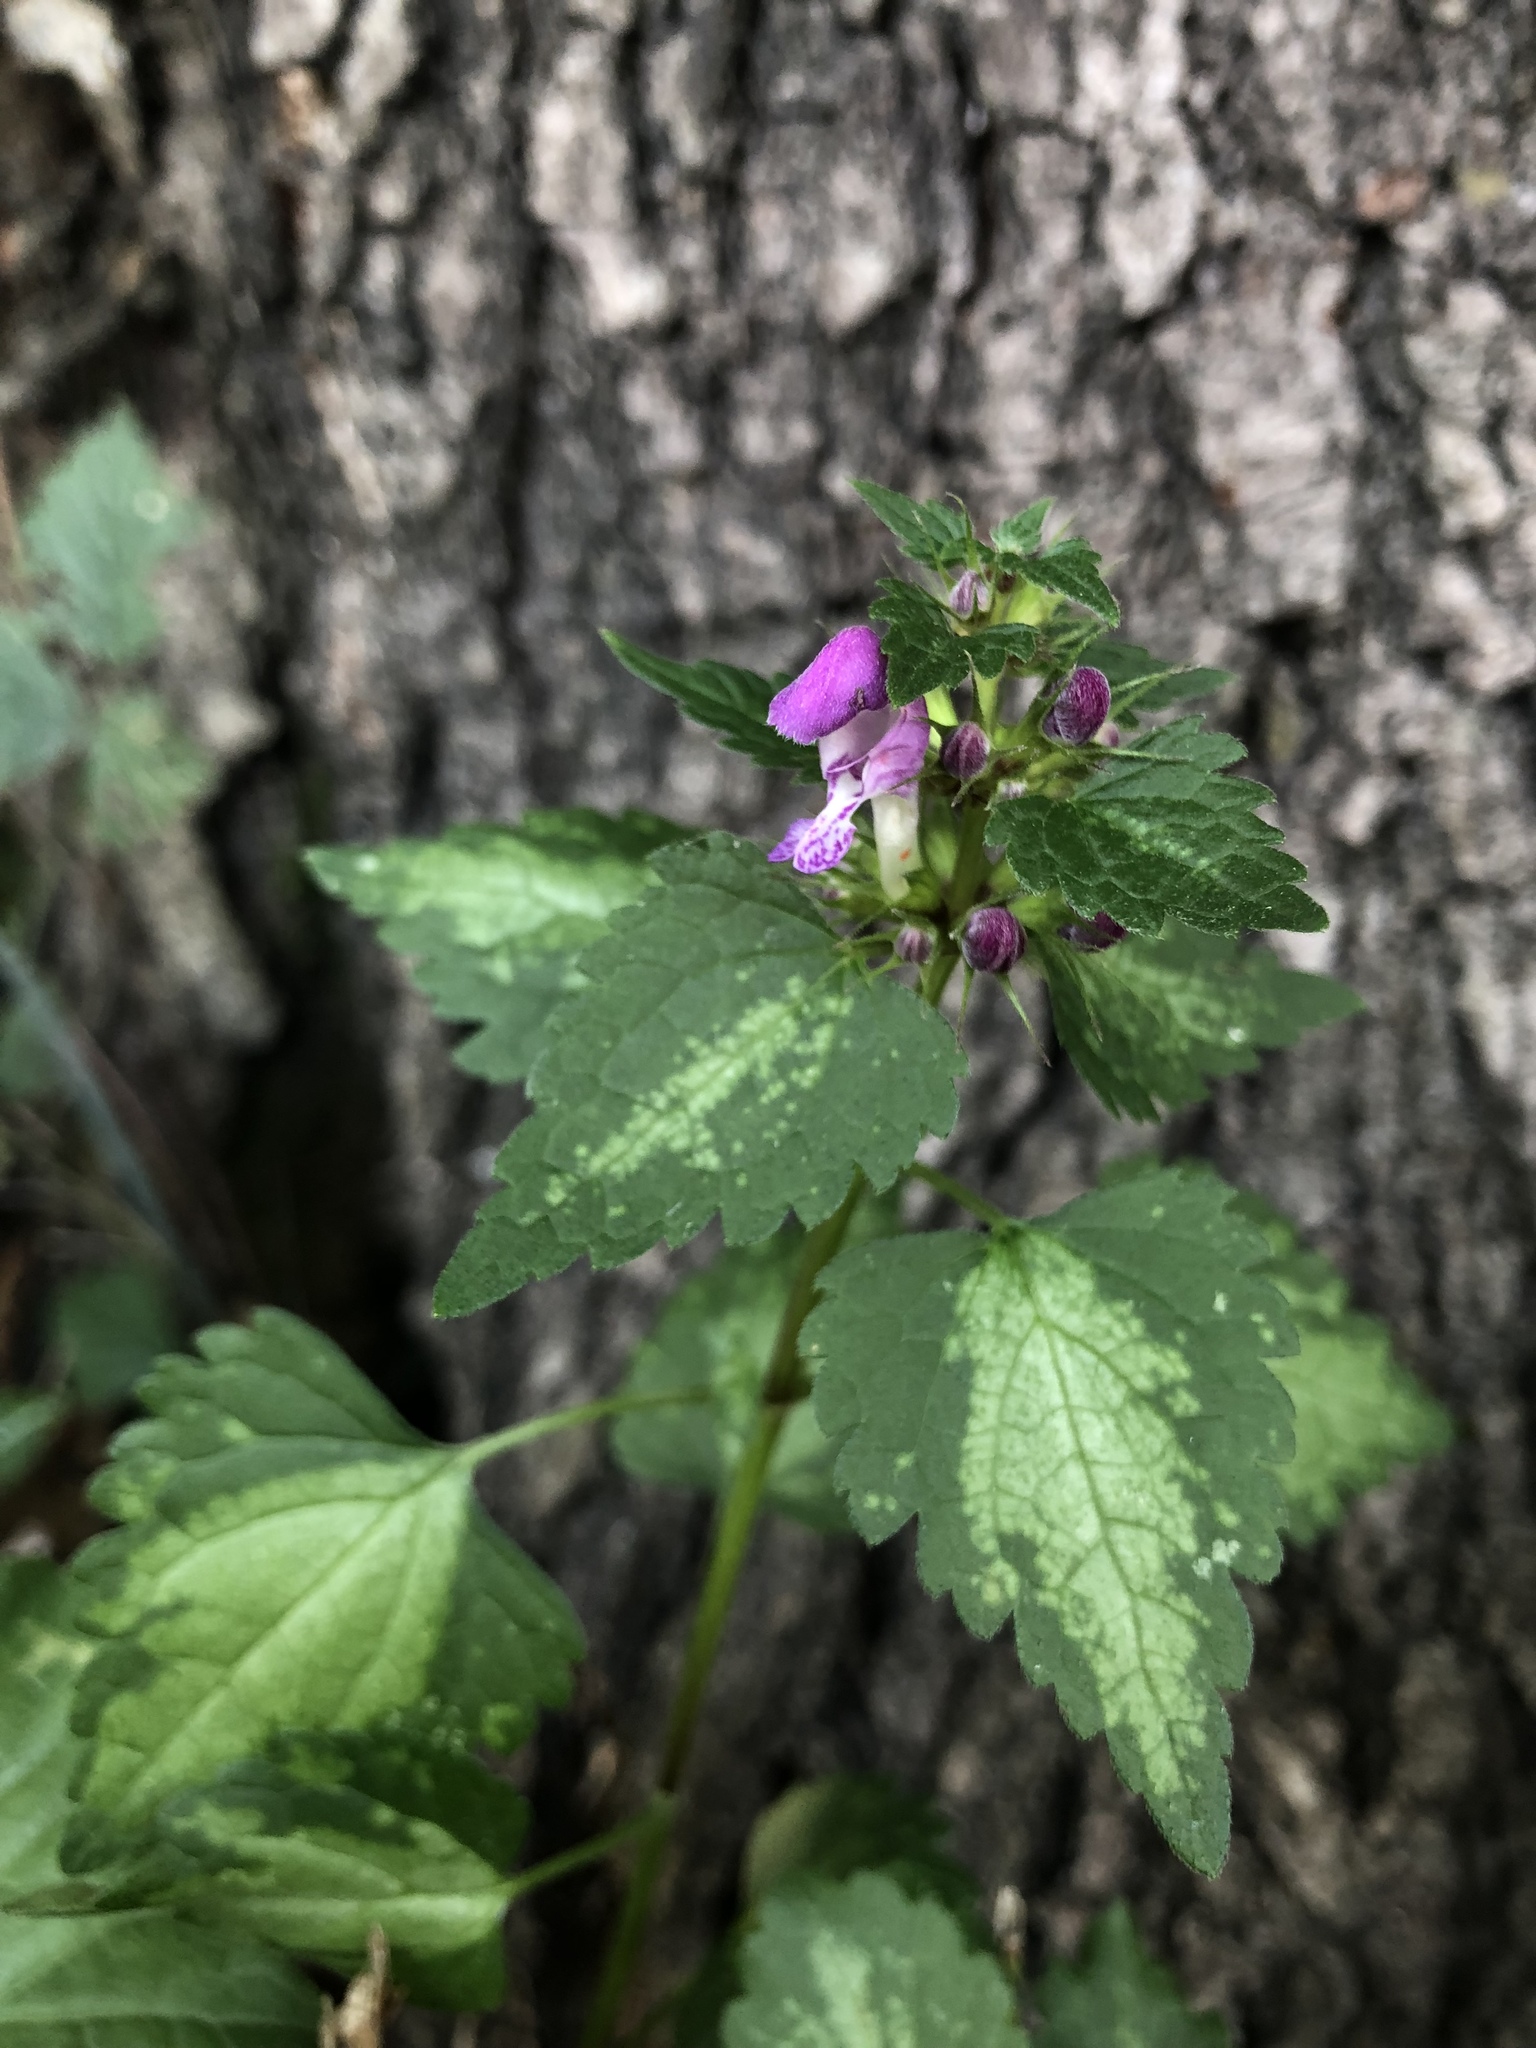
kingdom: Plantae
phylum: Tracheophyta
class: Magnoliopsida
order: Lamiales
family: Lamiaceae
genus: Lamium
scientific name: Lamium maculatum
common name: Spotted dead-nettle
